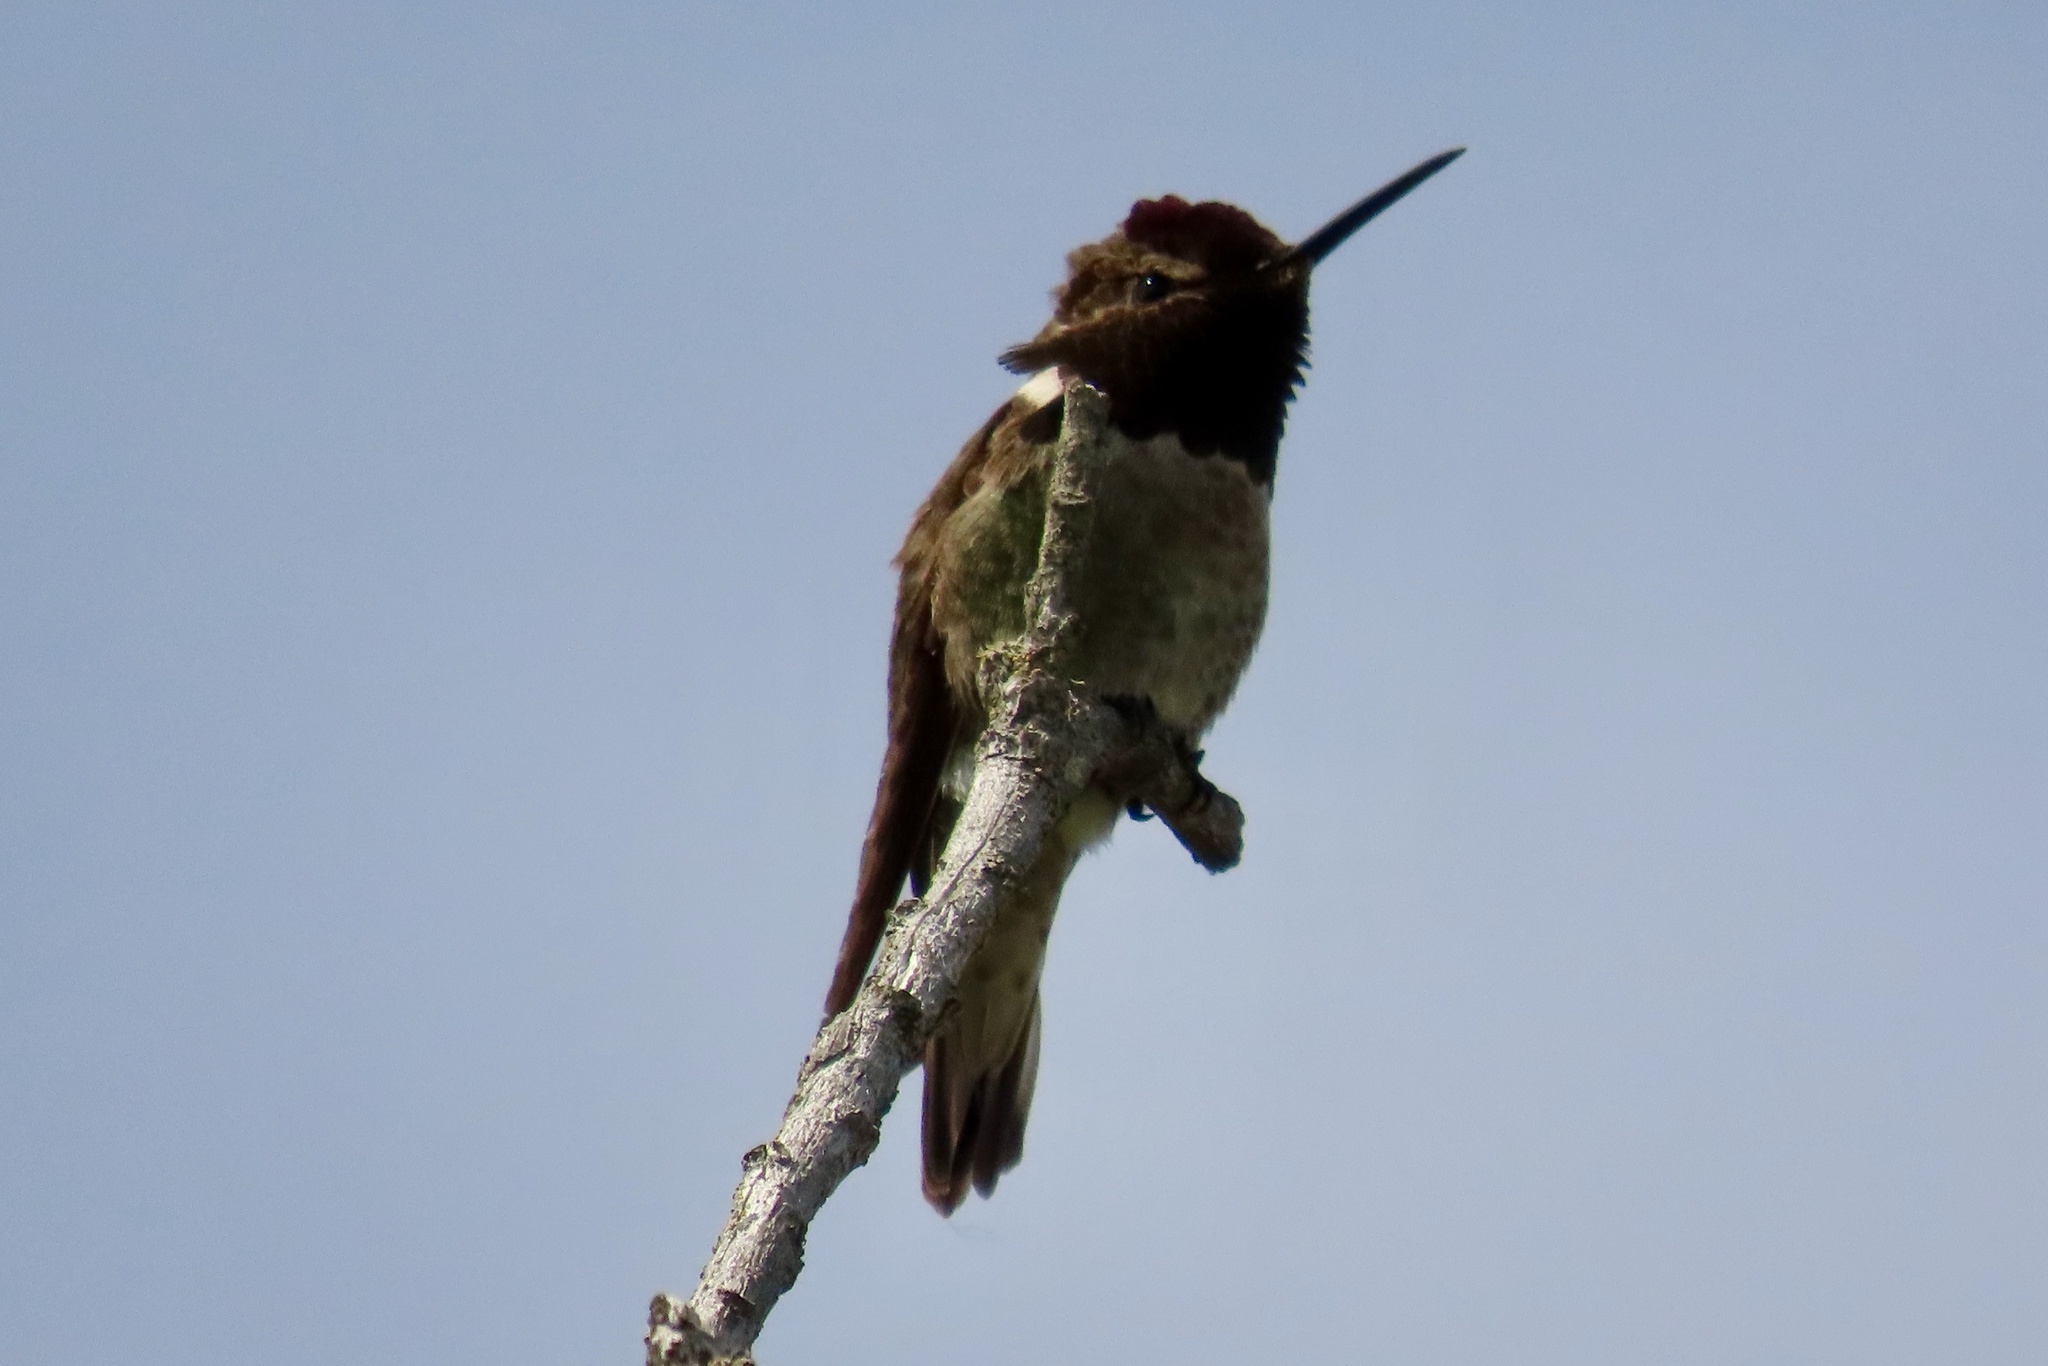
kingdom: Animalia
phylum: Chordata
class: Aves
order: Apodiformes
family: Trochilidae
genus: Calypte
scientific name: Calypte anna
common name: Anna's hummingbird
